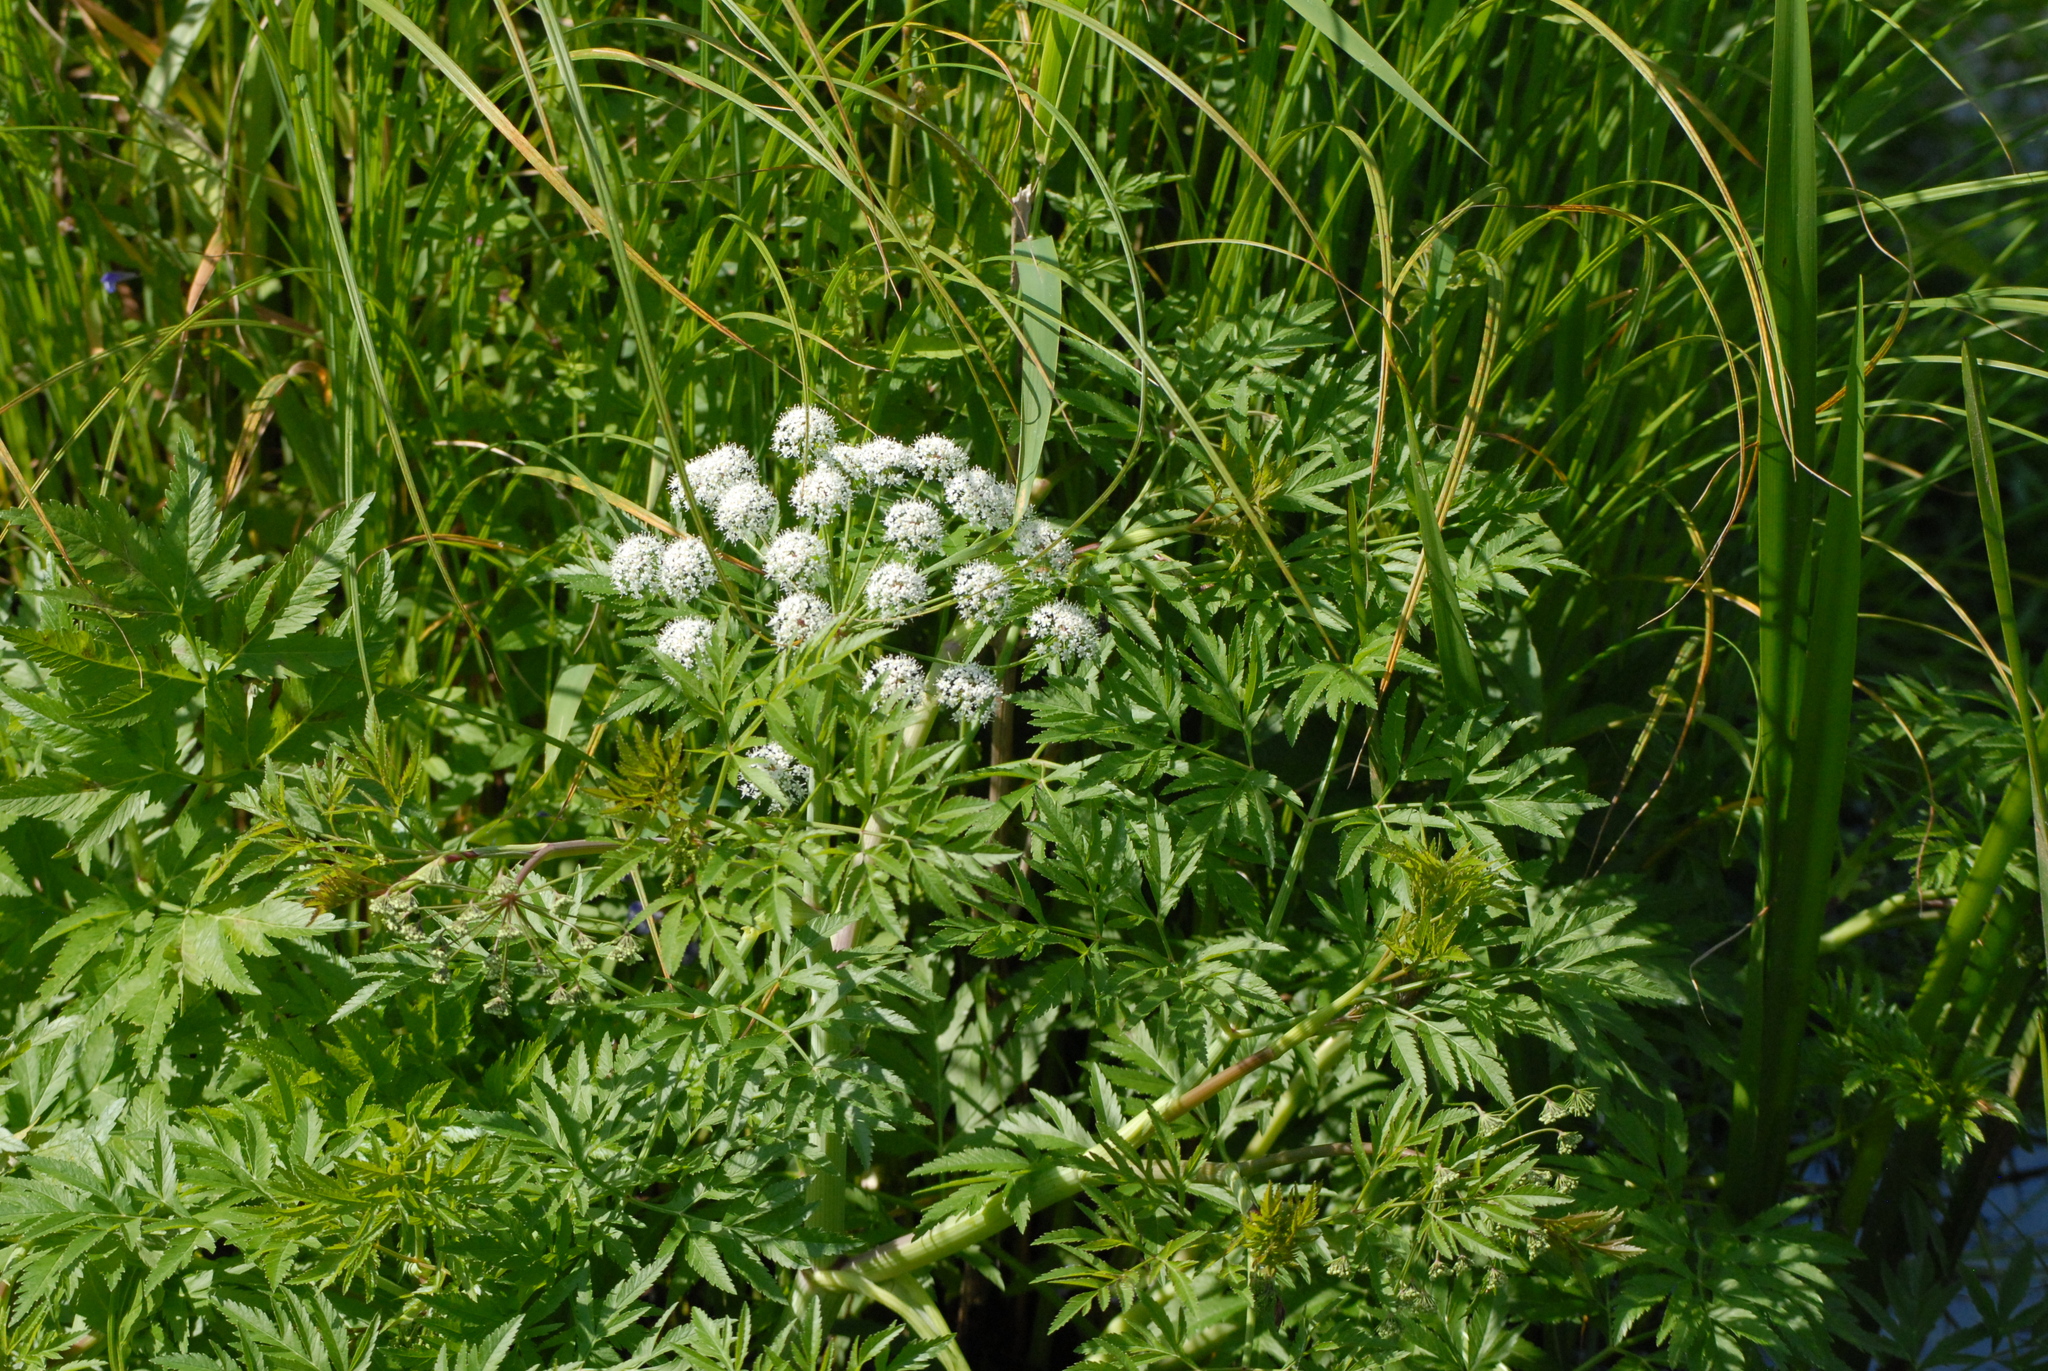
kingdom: Plantae
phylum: Tracheophyta
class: Magnoliopsida
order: Apiales
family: Apiaceae
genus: Cicuta
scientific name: Cicuta virosa
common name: Cowbane
